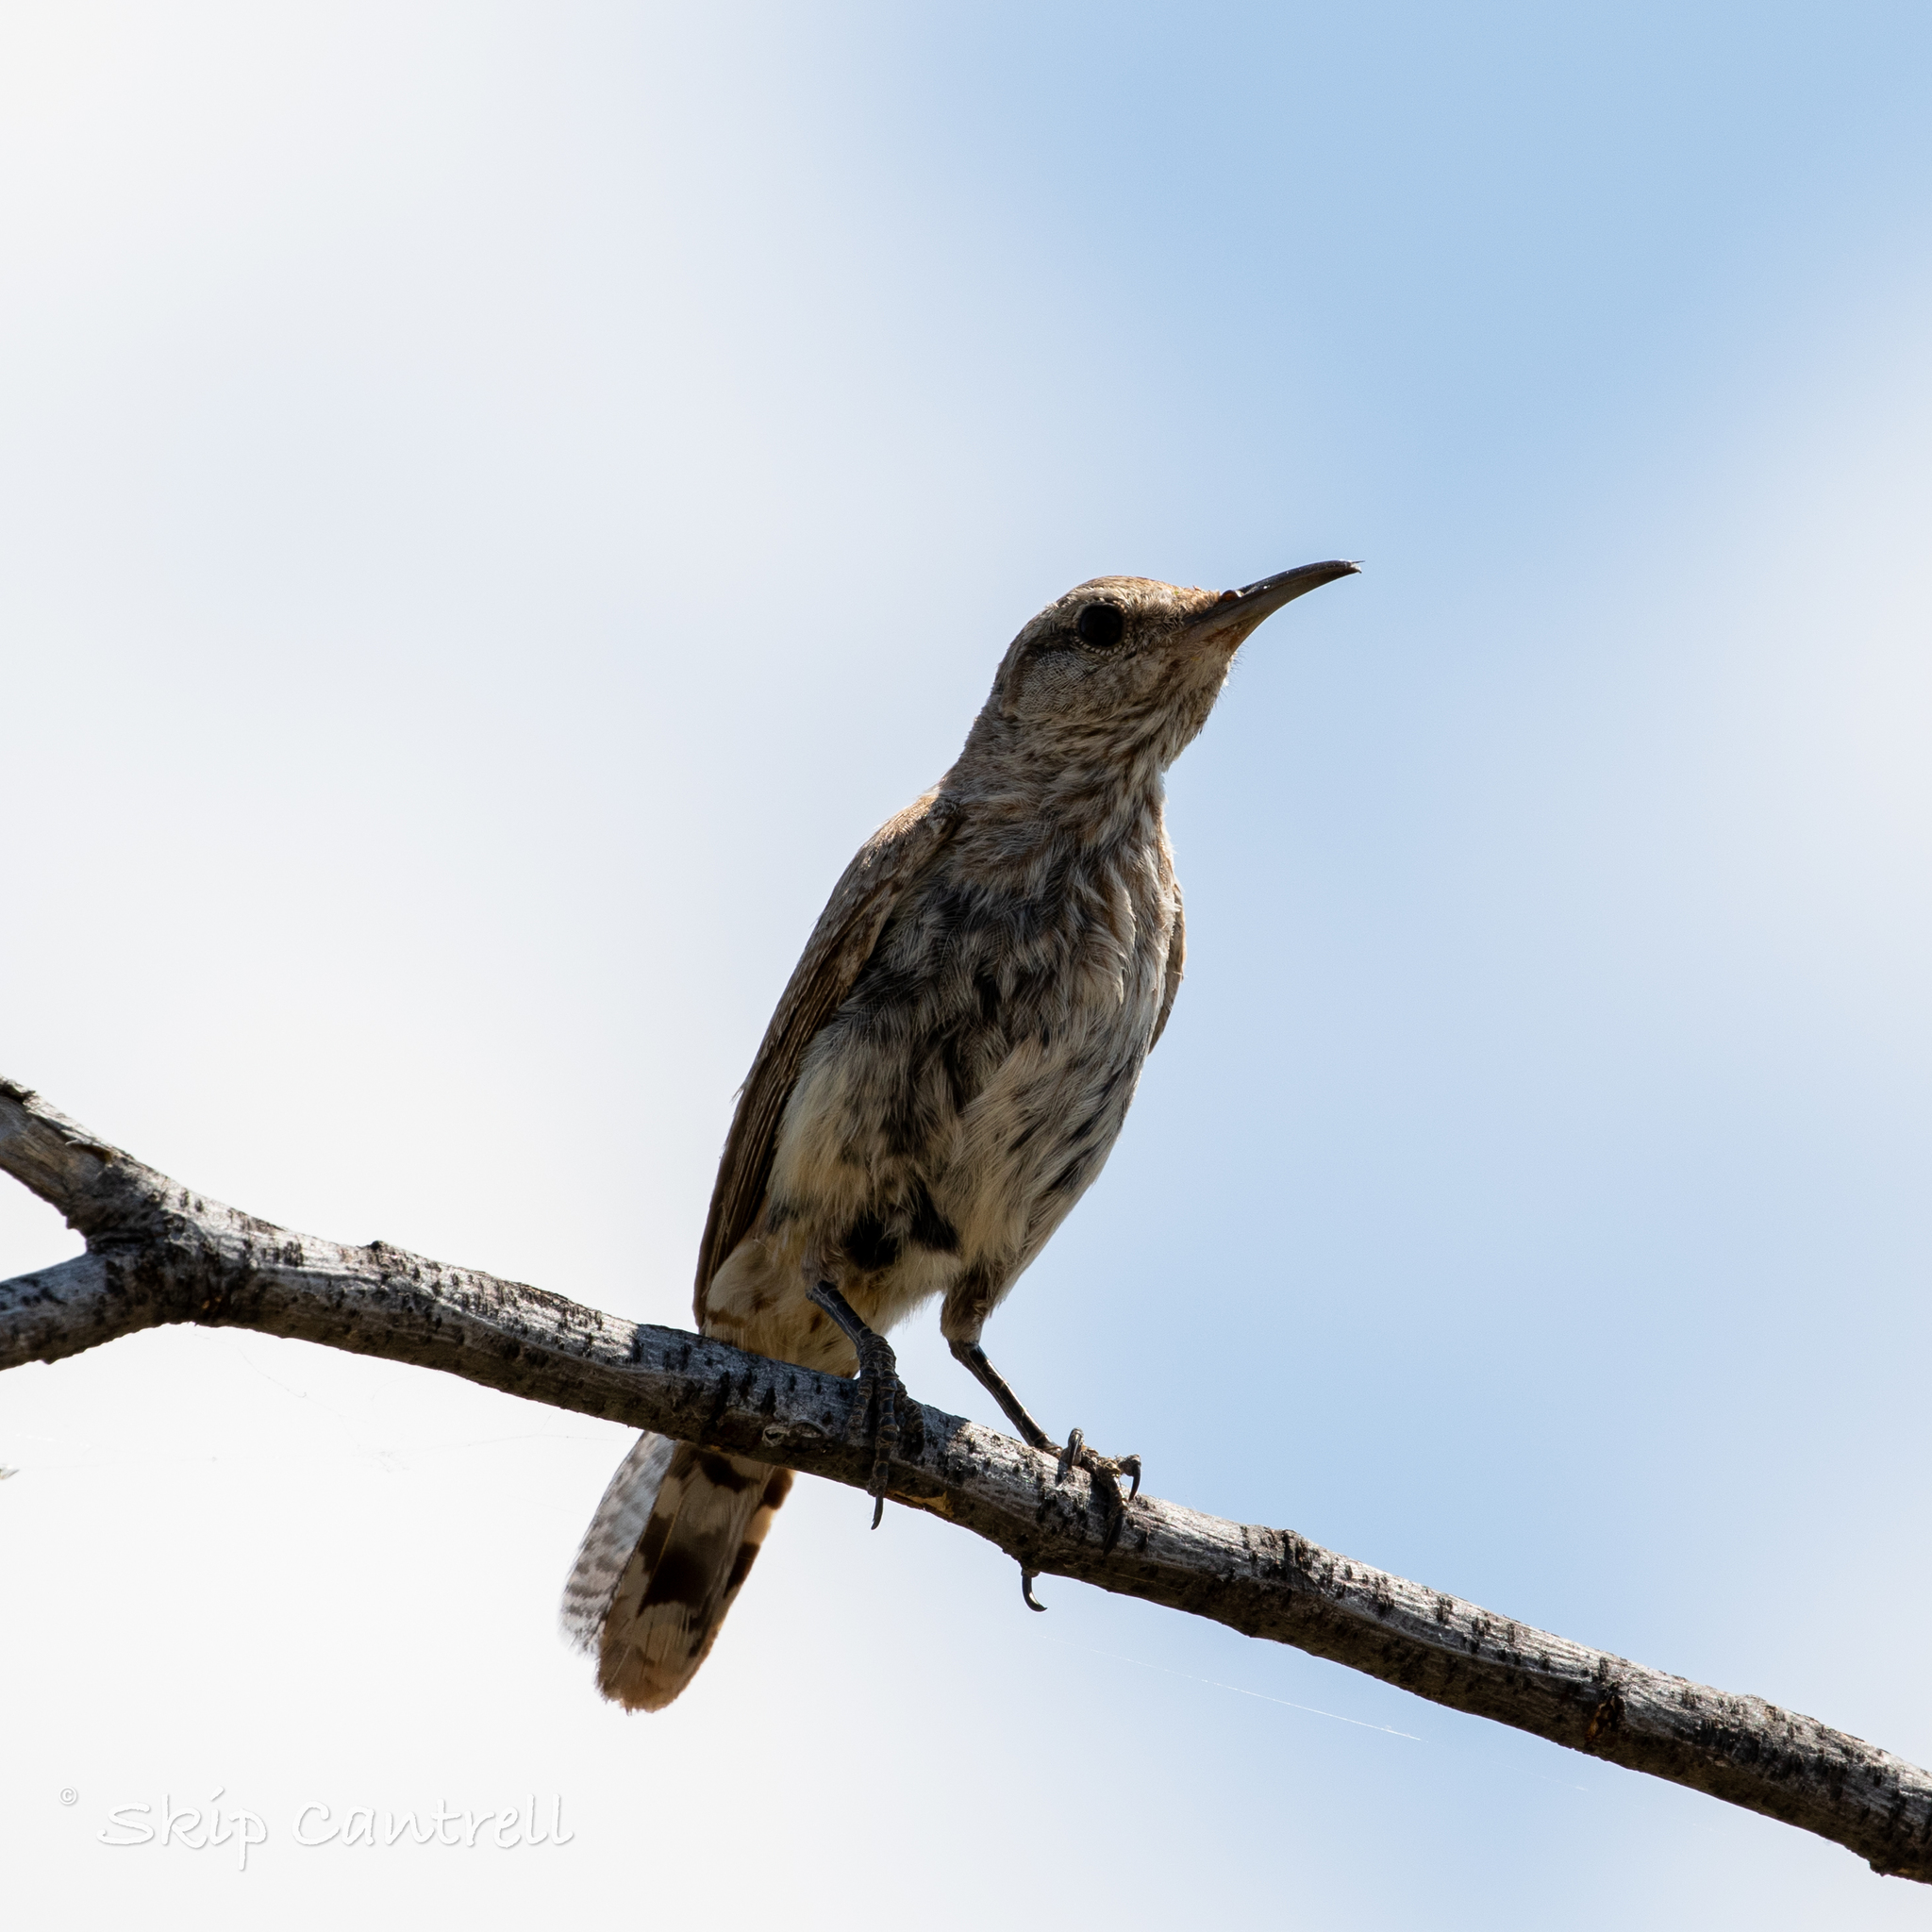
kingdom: Animalia
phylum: Chordata
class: Aves
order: Passeriformes
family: Troglodytidae
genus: Salpinctes
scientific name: Salpinctes obsoletus
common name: Rock wren
